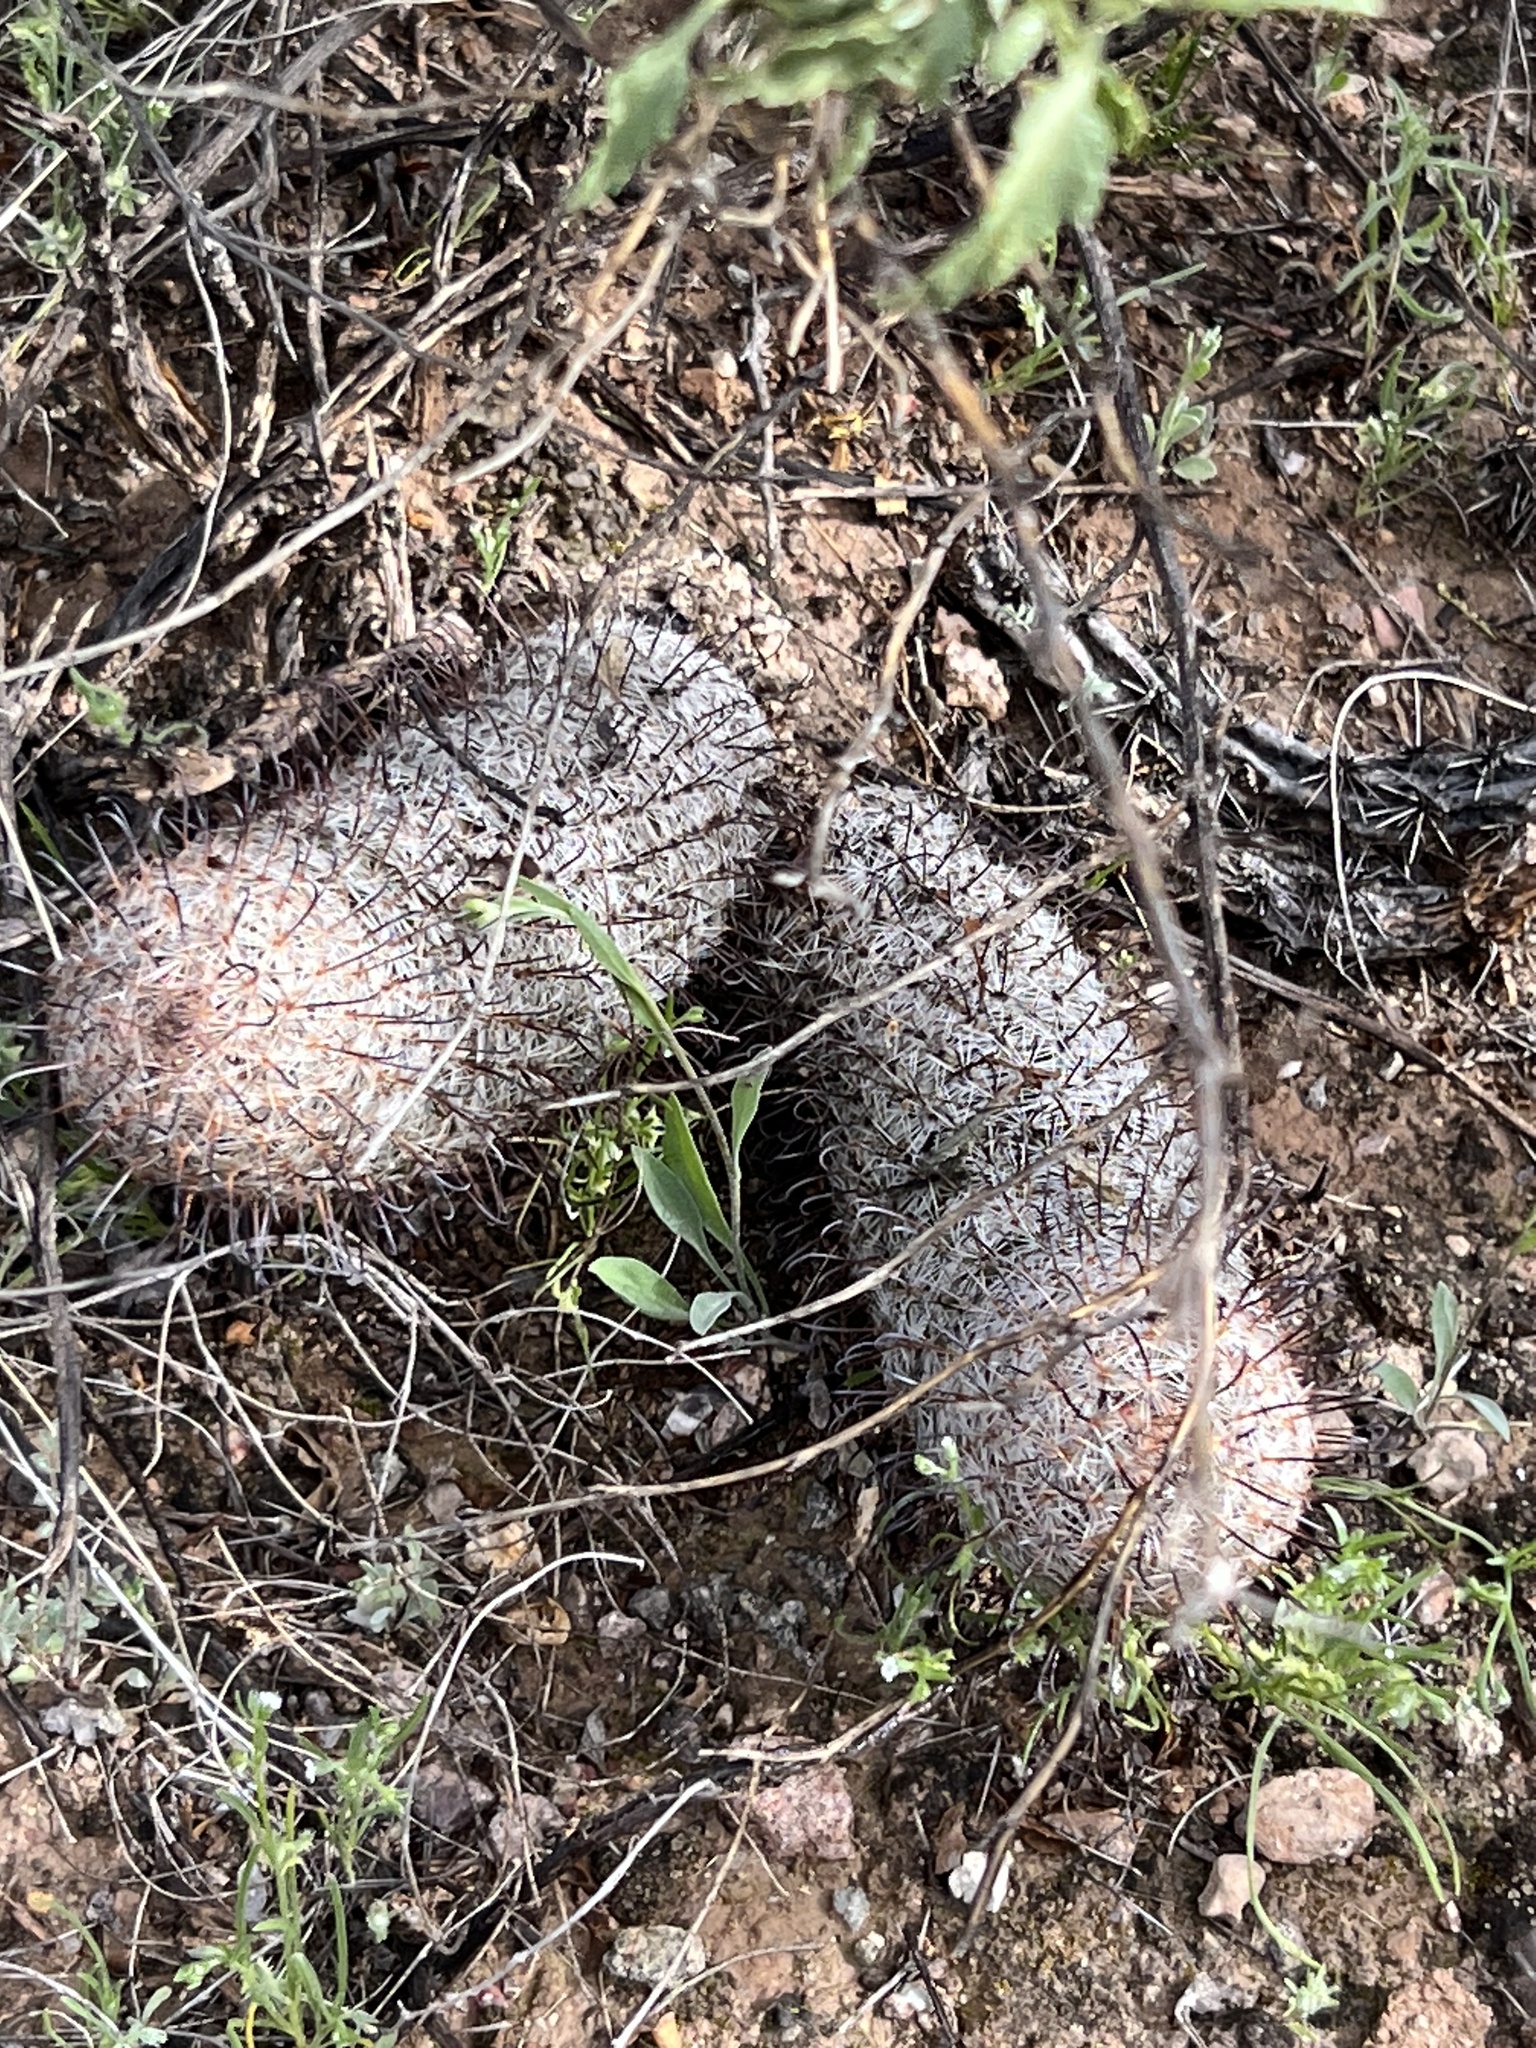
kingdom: Plantae
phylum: Tracheophyta
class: Magnoliopsida
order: Caryophyllales
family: Cactaceae
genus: Cochemiea
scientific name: Cochemiea grahamii
